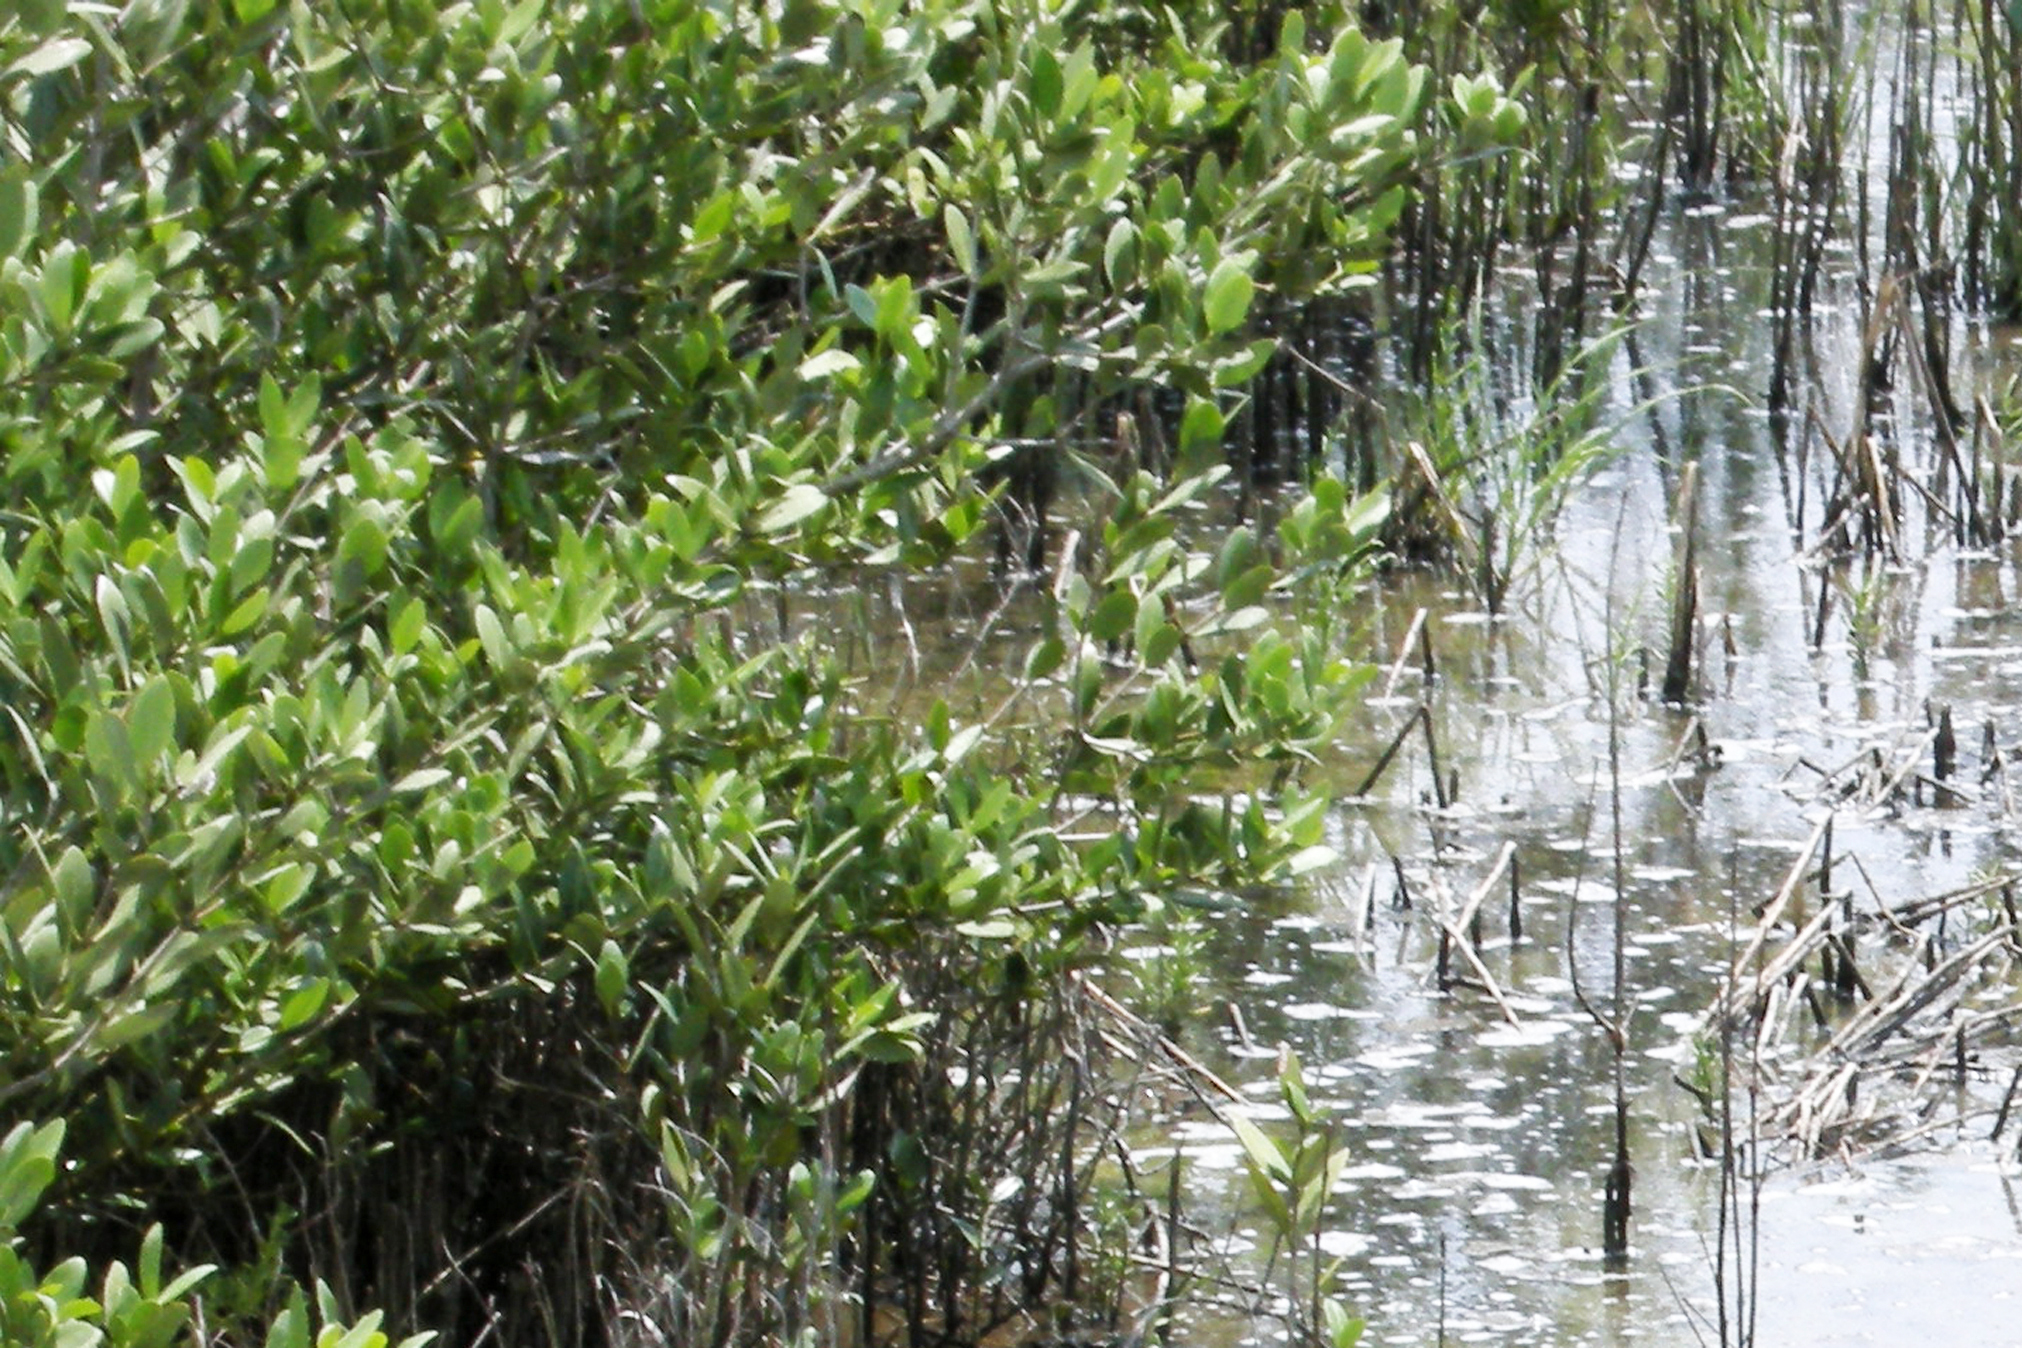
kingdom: Plantae
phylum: Tracheophyta
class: Magnoliopsida
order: Lamiales
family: Acanthaceae
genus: Avicennia
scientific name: Avicennia germinans
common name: Black mangrove
